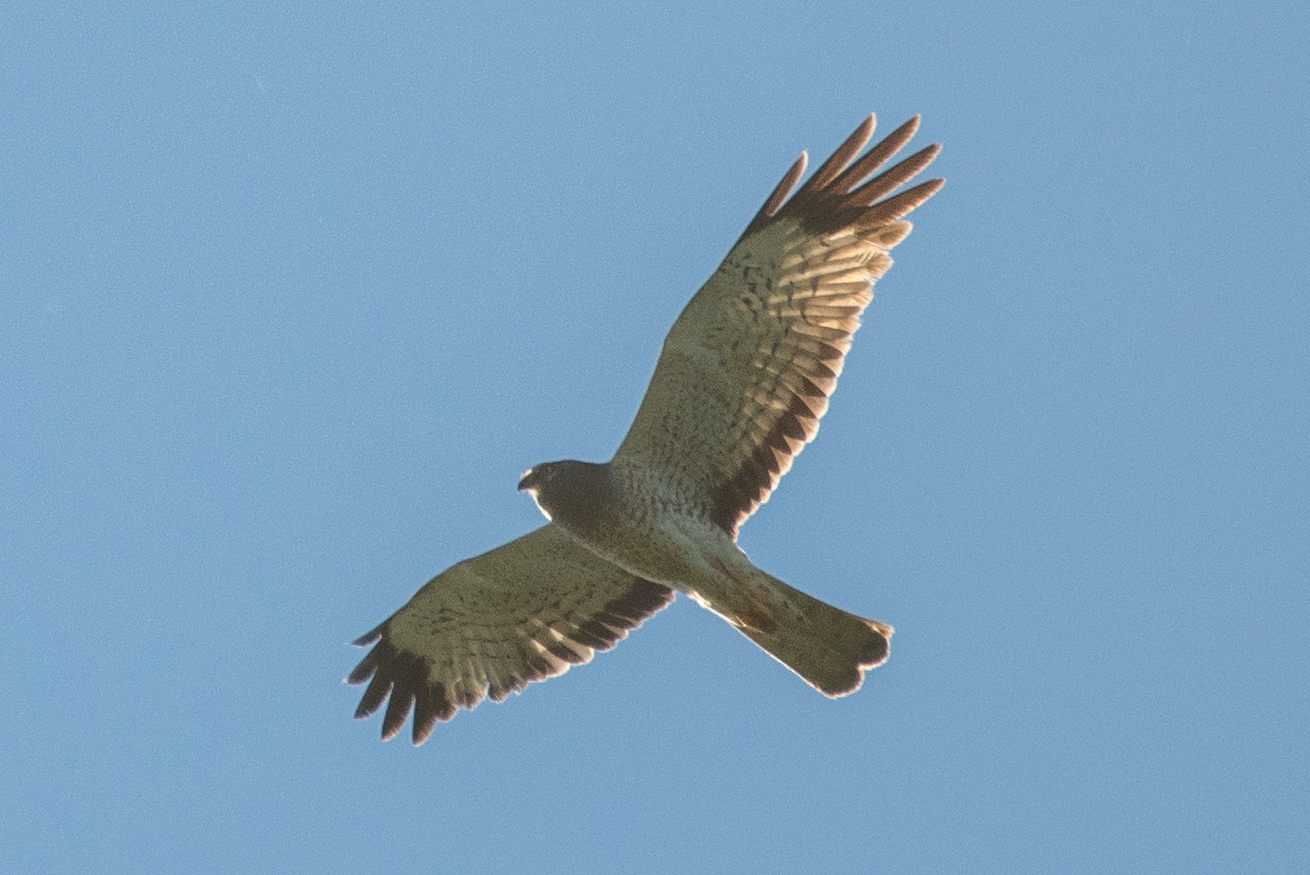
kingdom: Animalia
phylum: Chordata
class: Aves
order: Accipitriformes
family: Accipitridae
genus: Circus
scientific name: Circus cyaneus
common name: Hen harrier
